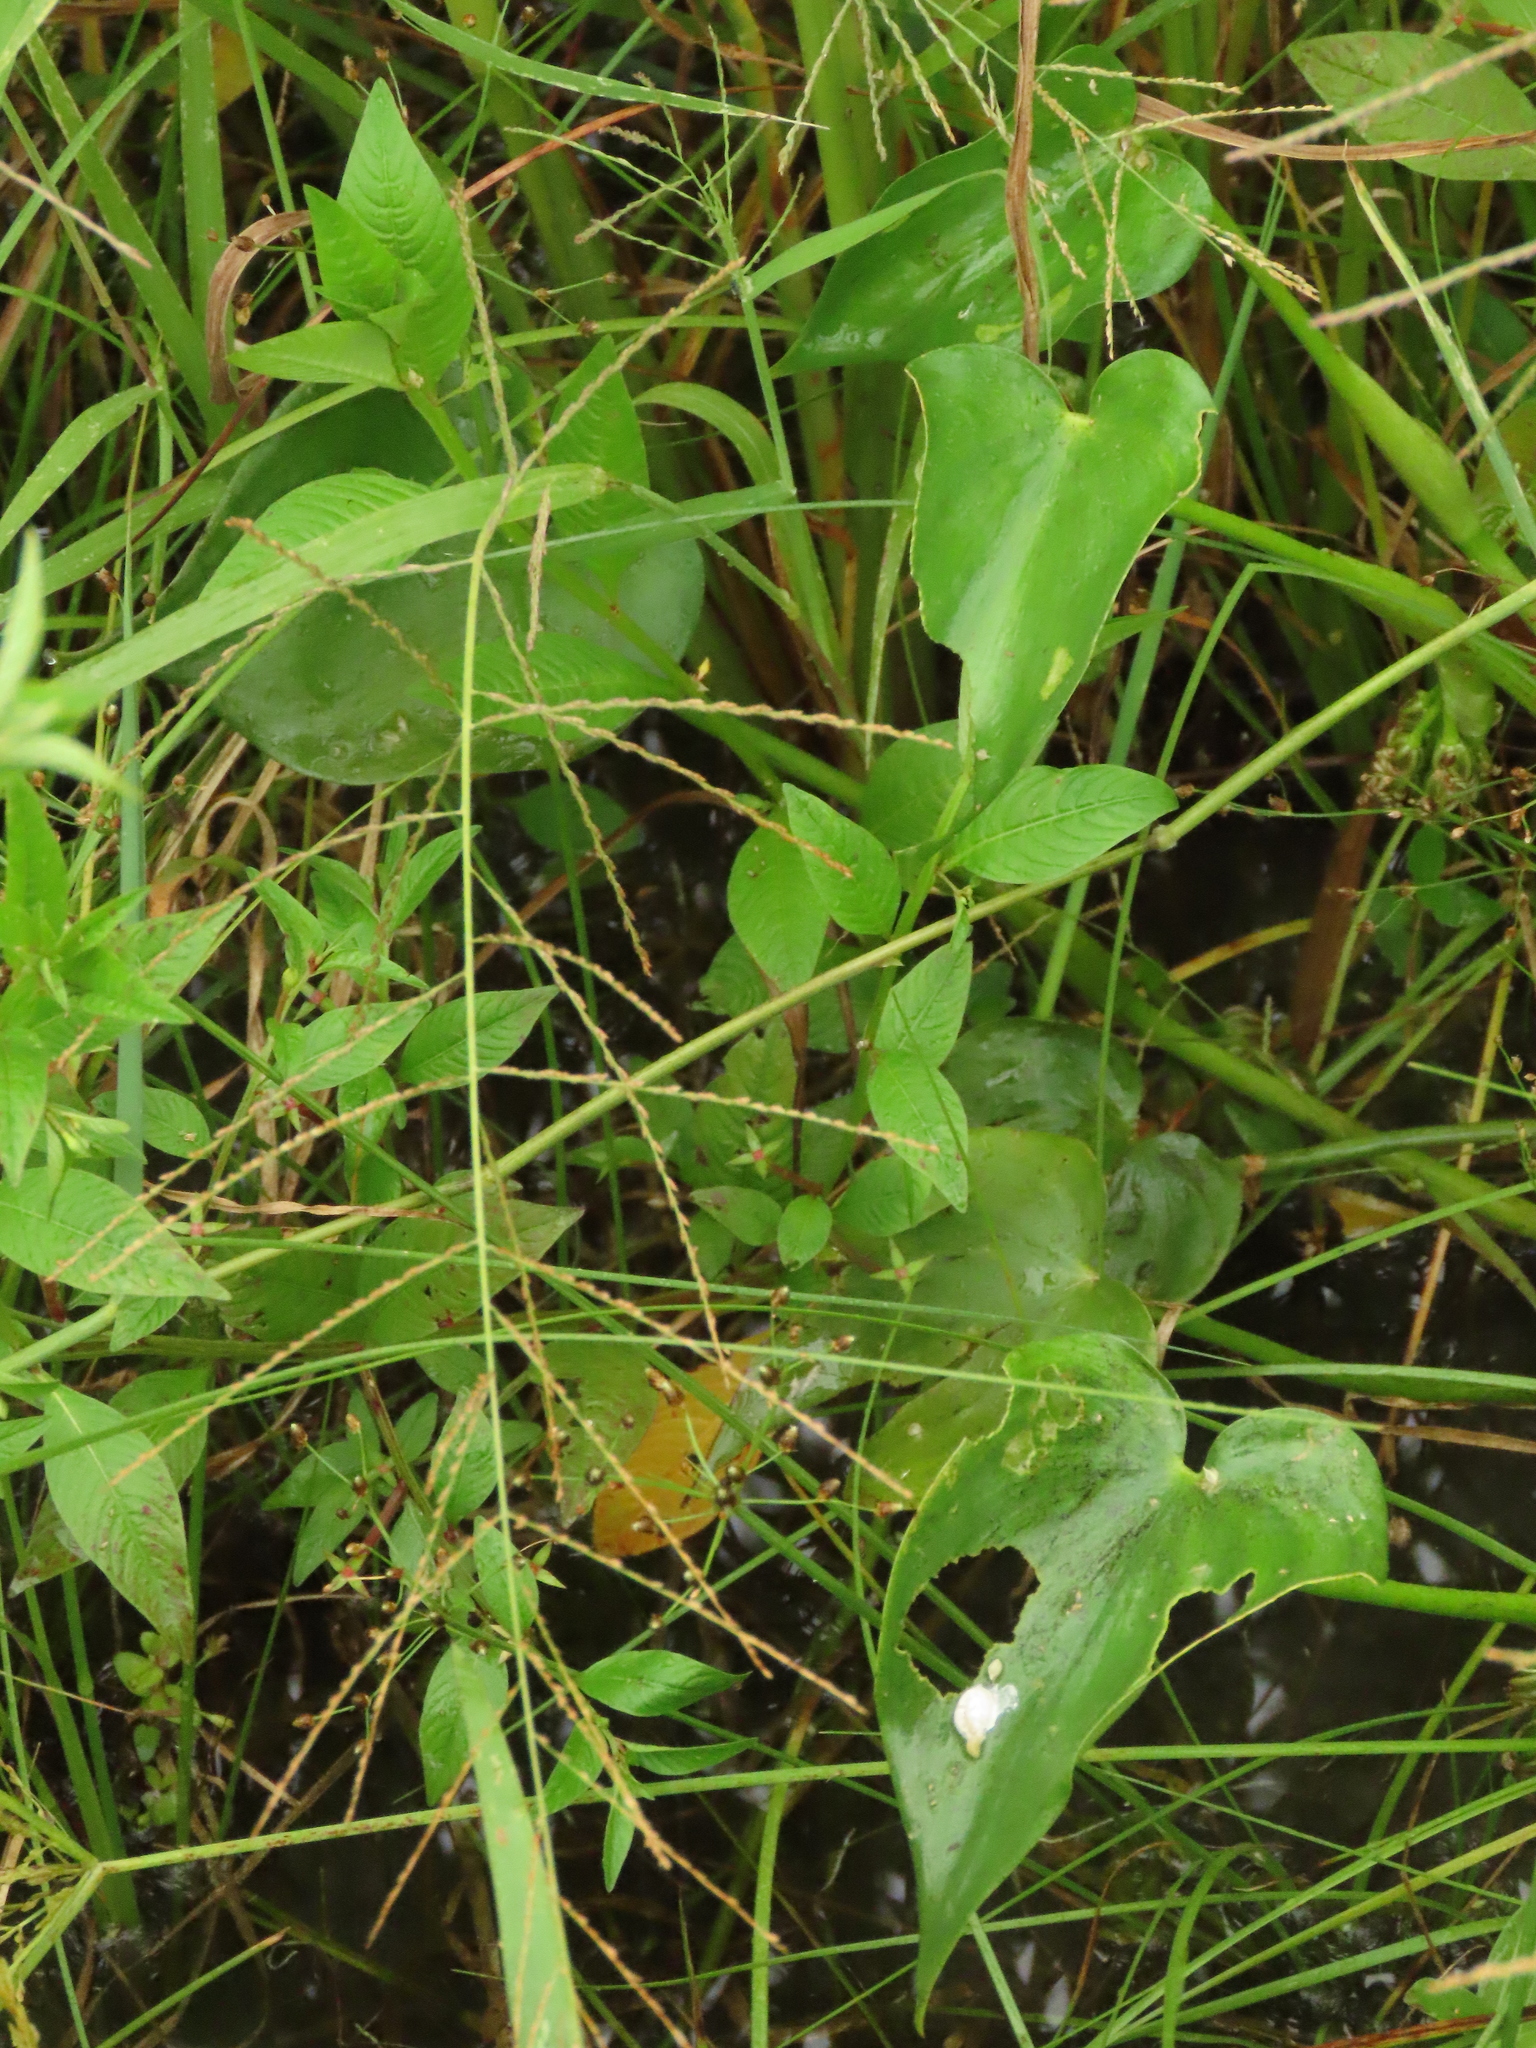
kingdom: Plantae
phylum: Tracheophyta
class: Liliopsida
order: Commelinales
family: Pontederiaceae
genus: Pontederia
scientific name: Pontederia vaginalis
